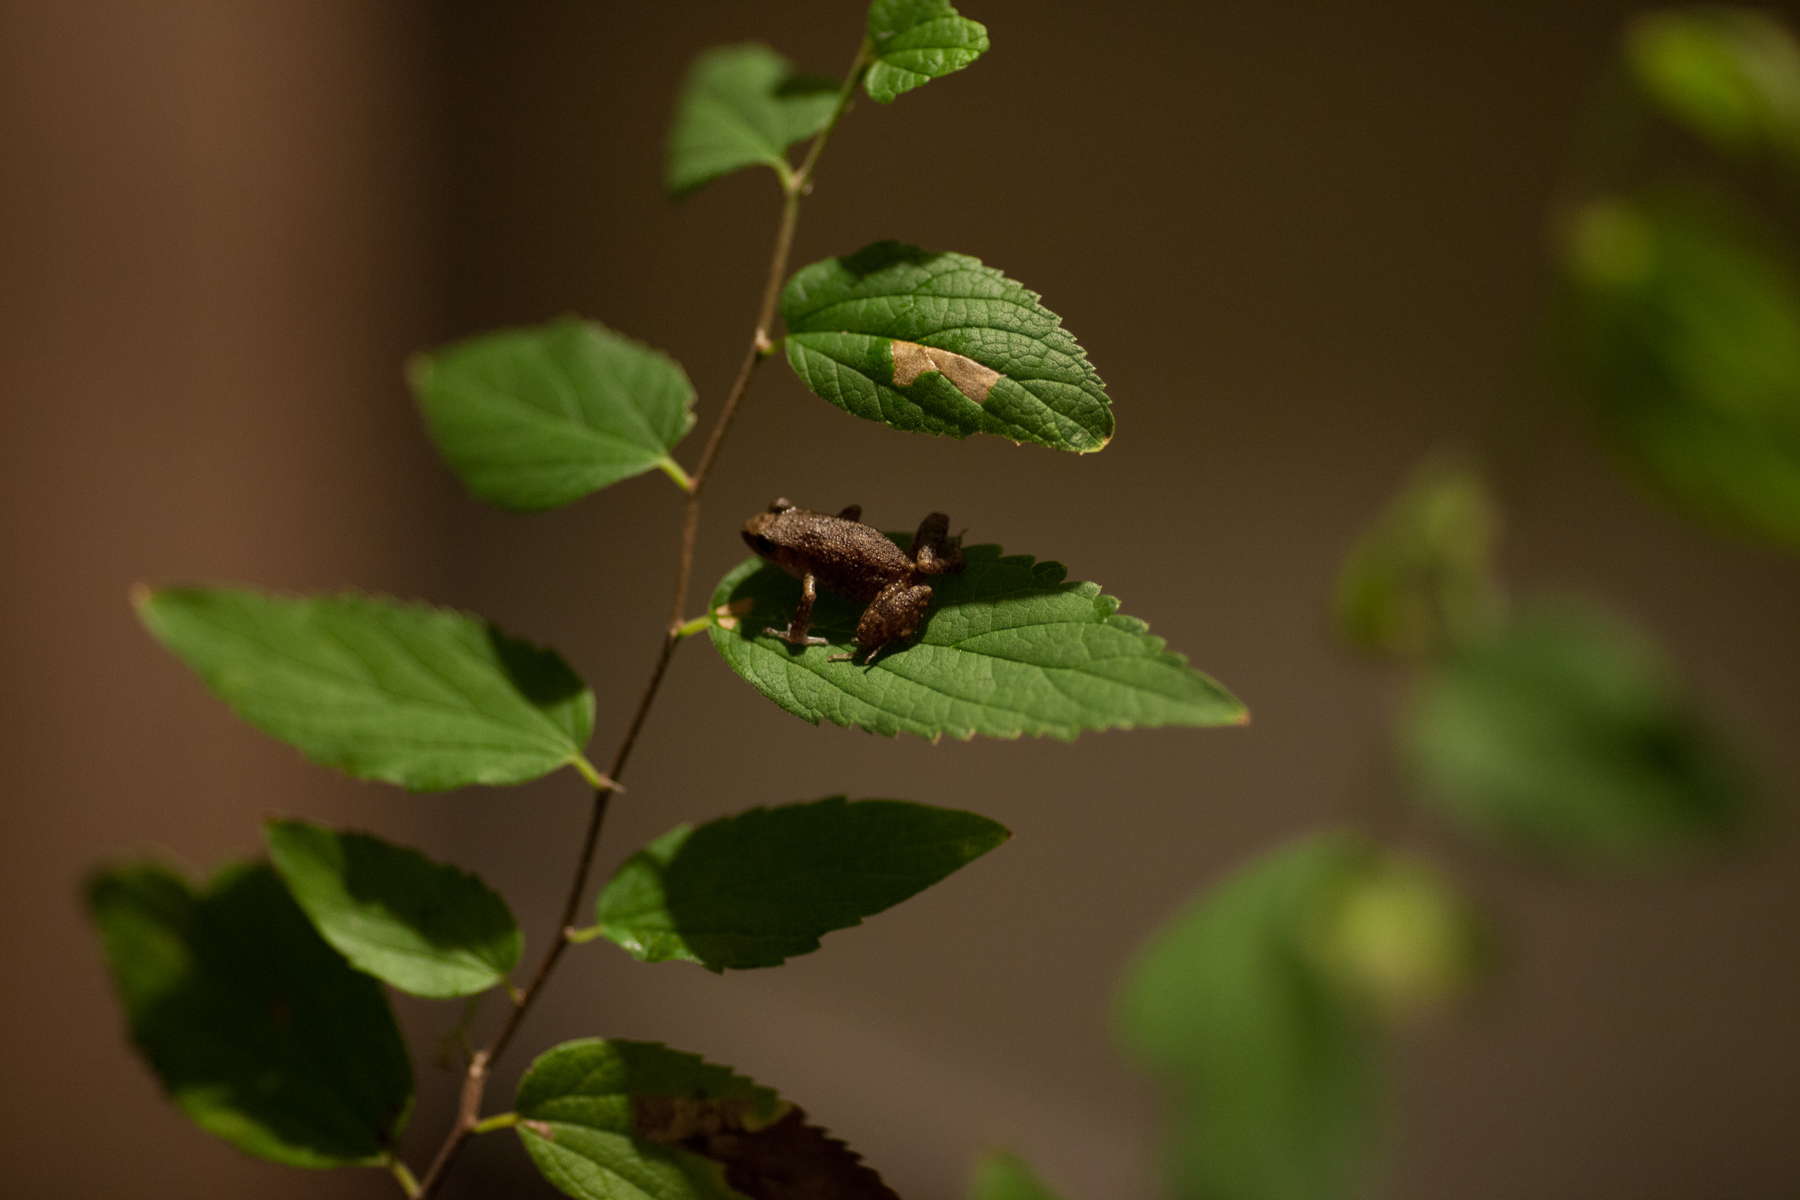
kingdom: Animalia
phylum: Chordata
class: Amphibia
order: Anura
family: Eleutherodactylidae
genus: Eleutherodactylus
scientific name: Eleutherodactylus campi
